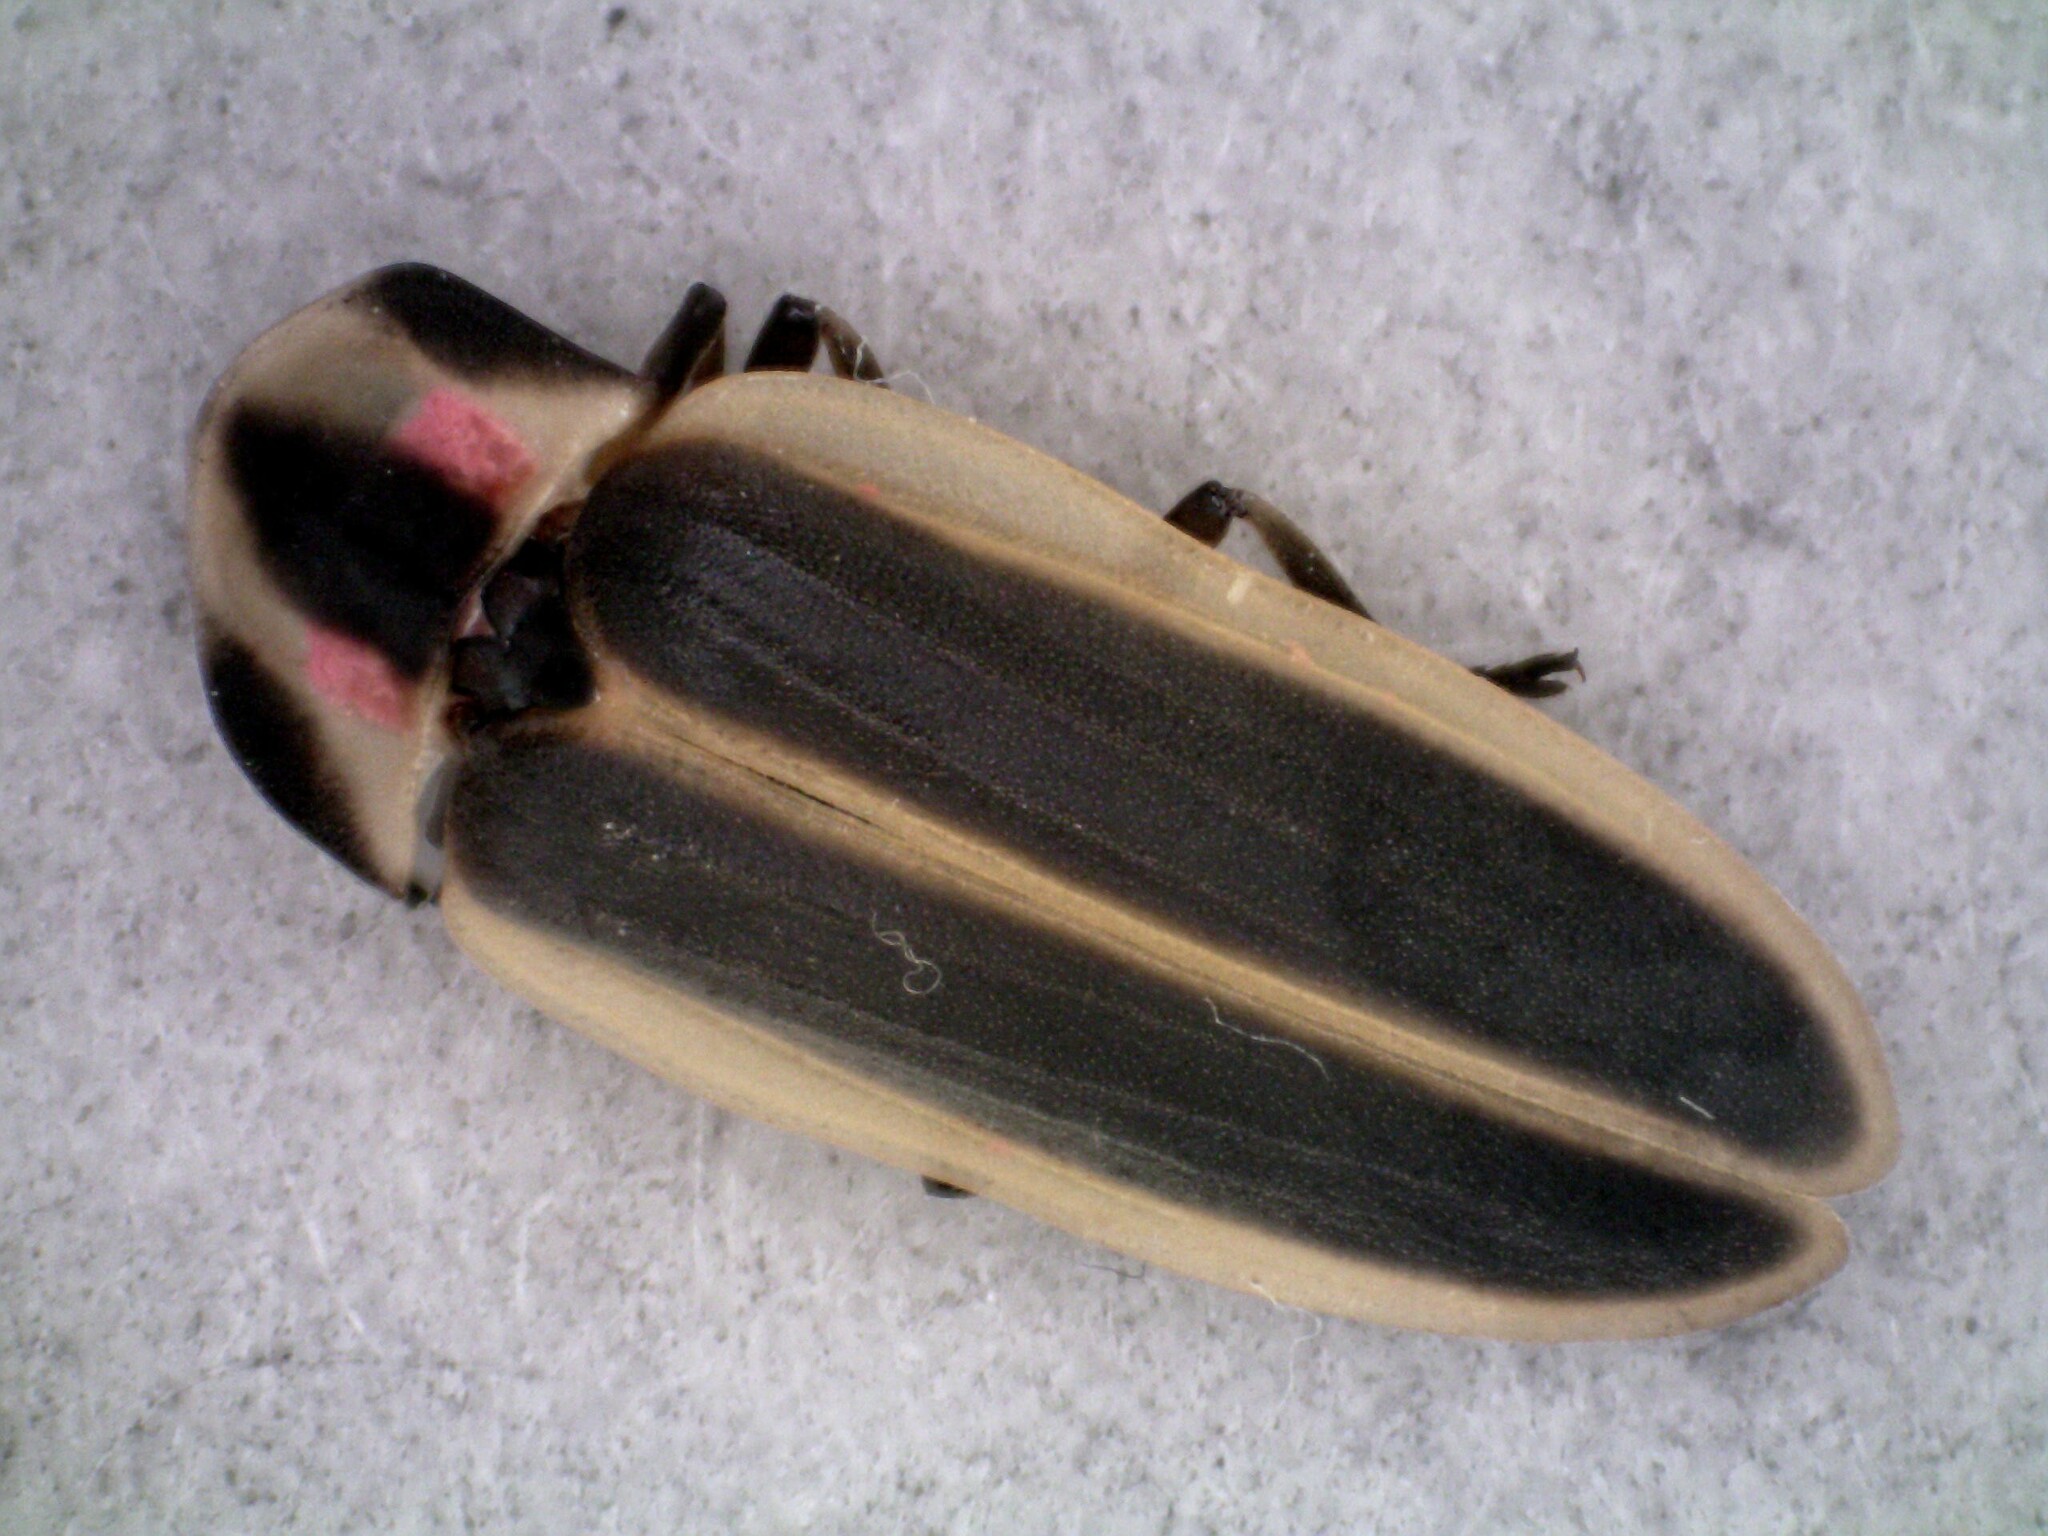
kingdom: Animalia
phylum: Arthropoda
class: Insecta
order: Coleoptera
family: Lampyridae
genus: Pyractomena
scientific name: Pyractomena angulata
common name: Candle firefly
